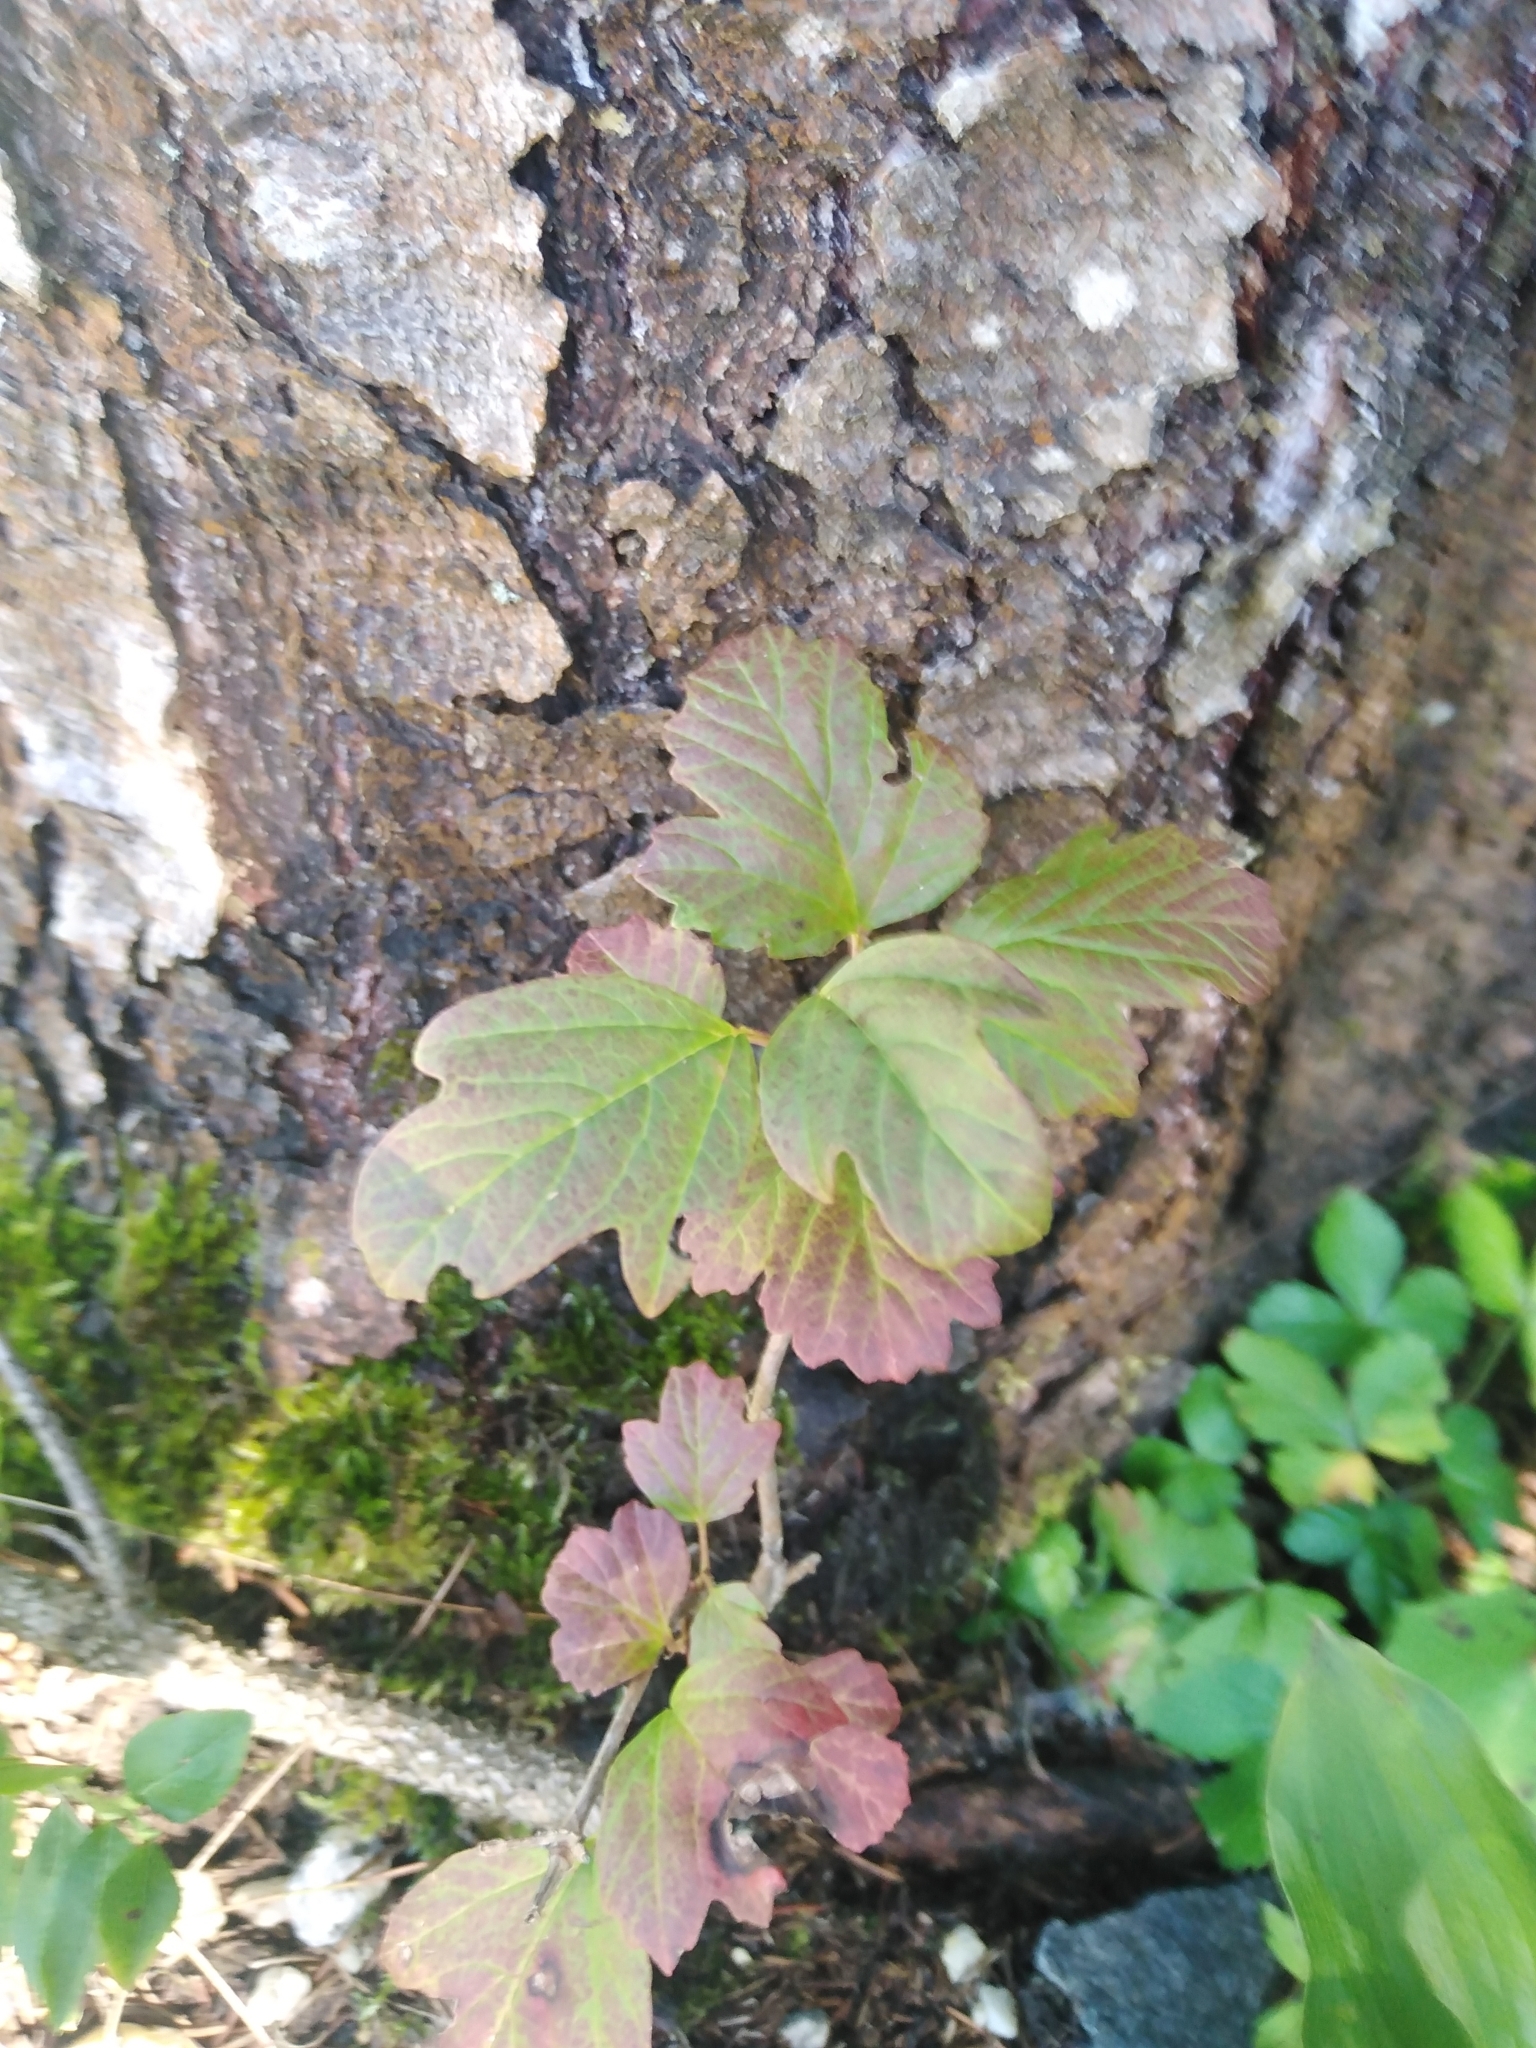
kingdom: Plantae
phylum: Tracheophyta
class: Magnoliopsida
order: Dipsacales
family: Viburnaceae
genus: Viburnum
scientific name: Viburnum opulus
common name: Guelder-rose
